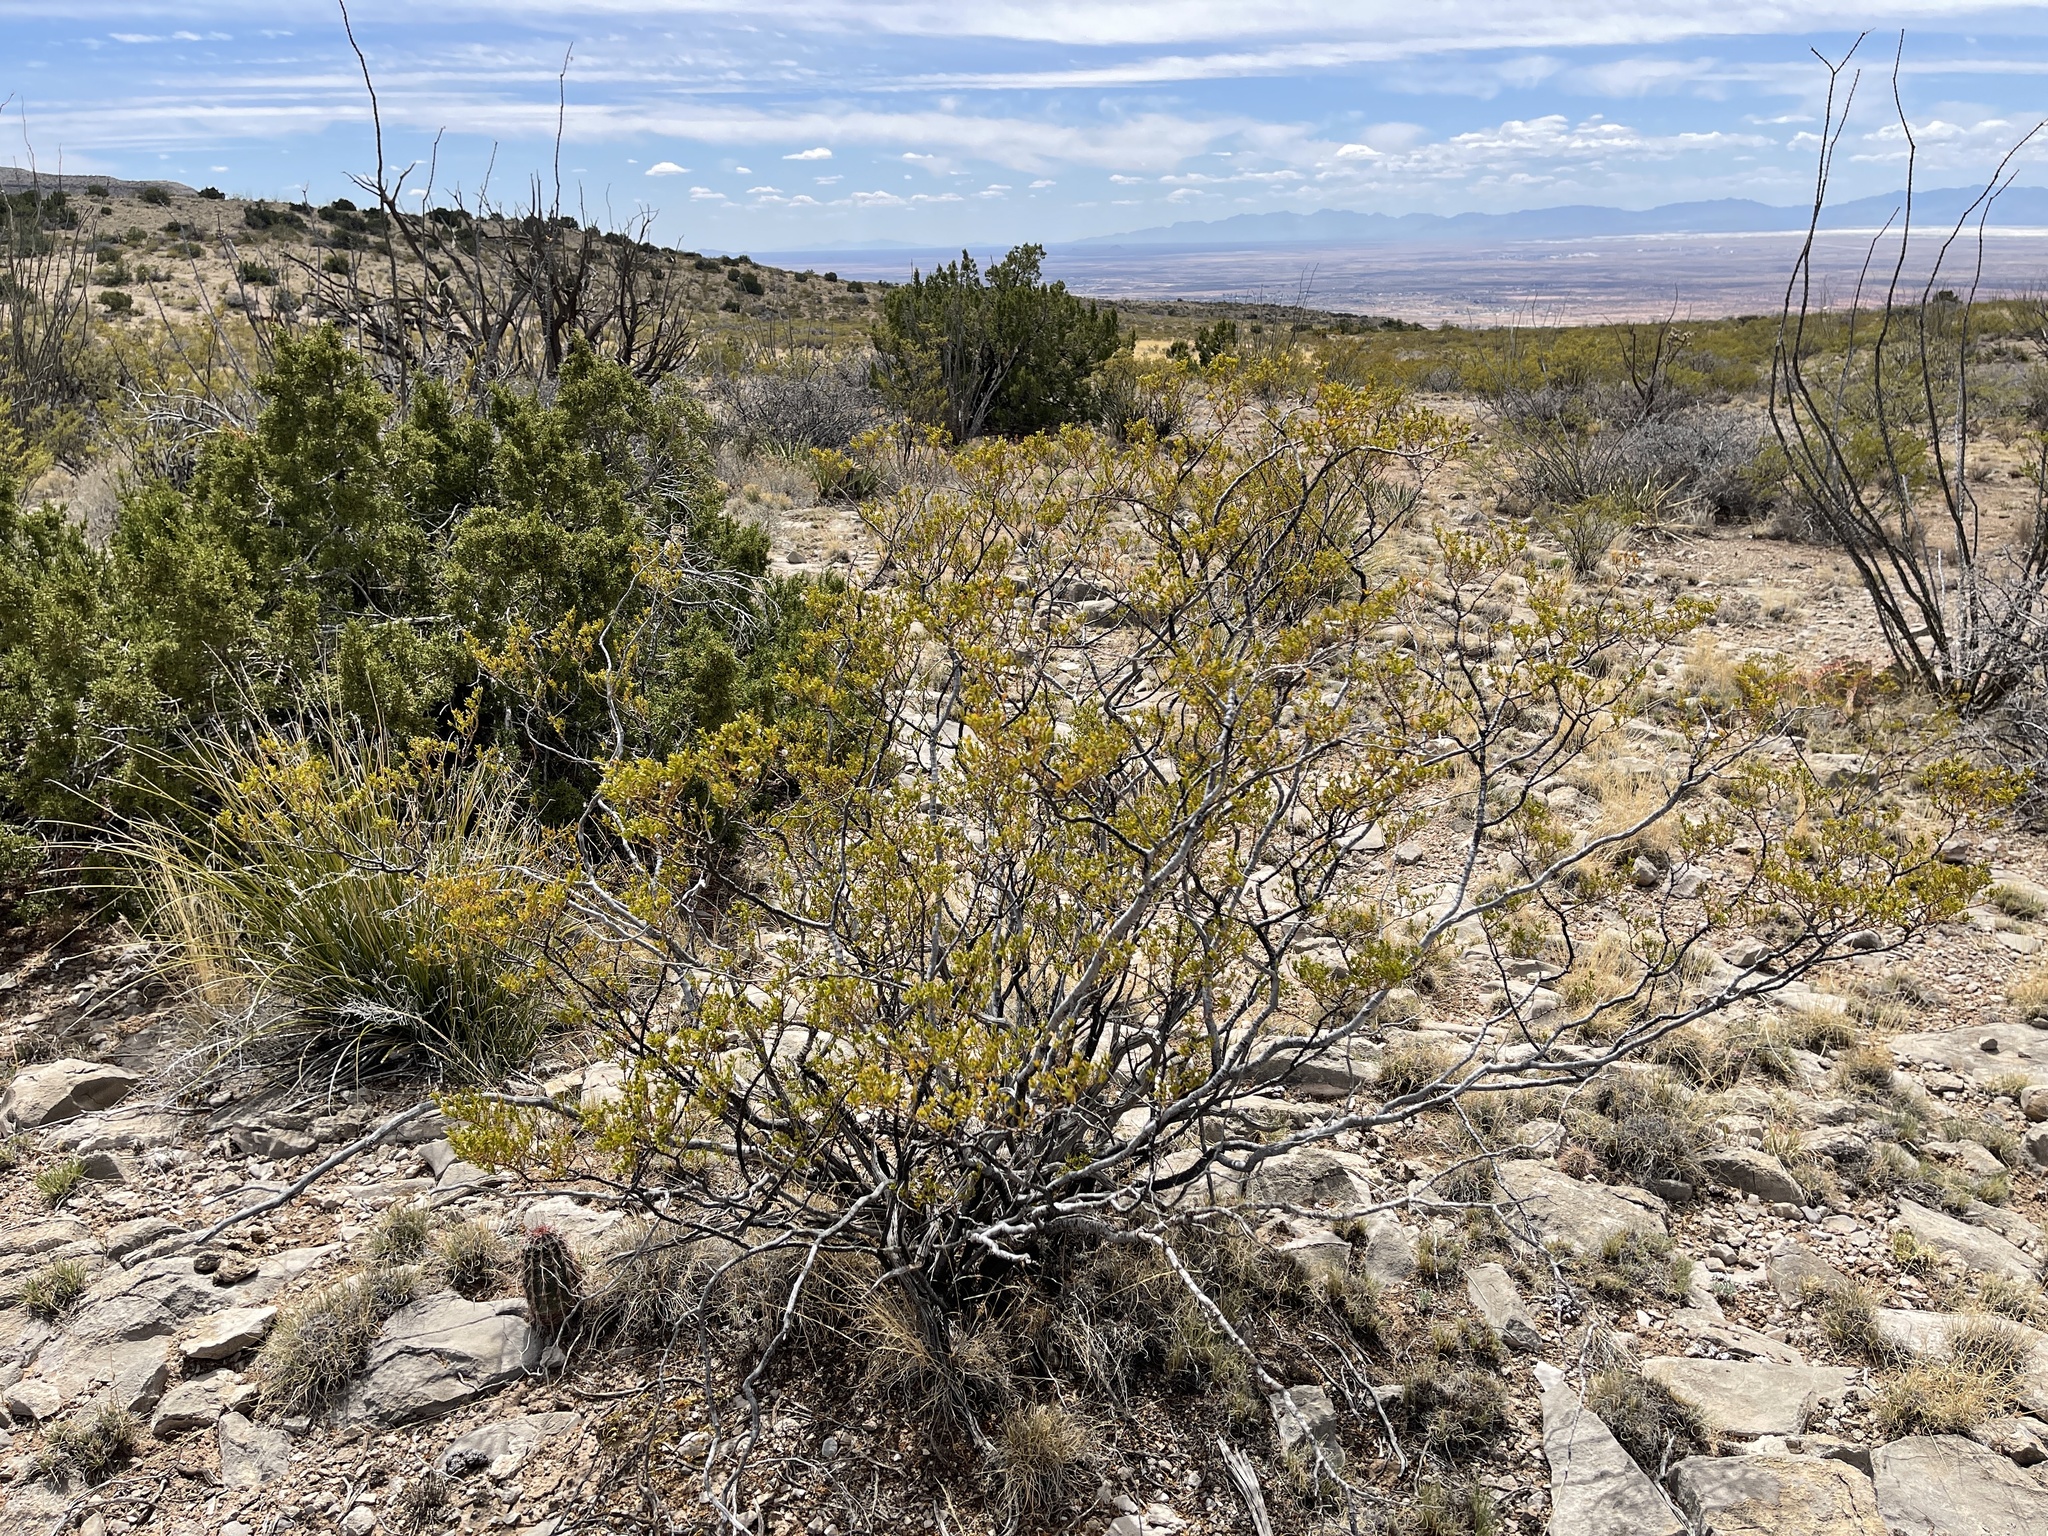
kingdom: Plantae
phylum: Tracheophyta
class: Magnoliopsida
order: Zygophyllales
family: Zygophyllaceae
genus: Larrea
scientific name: Larrea tridentata
